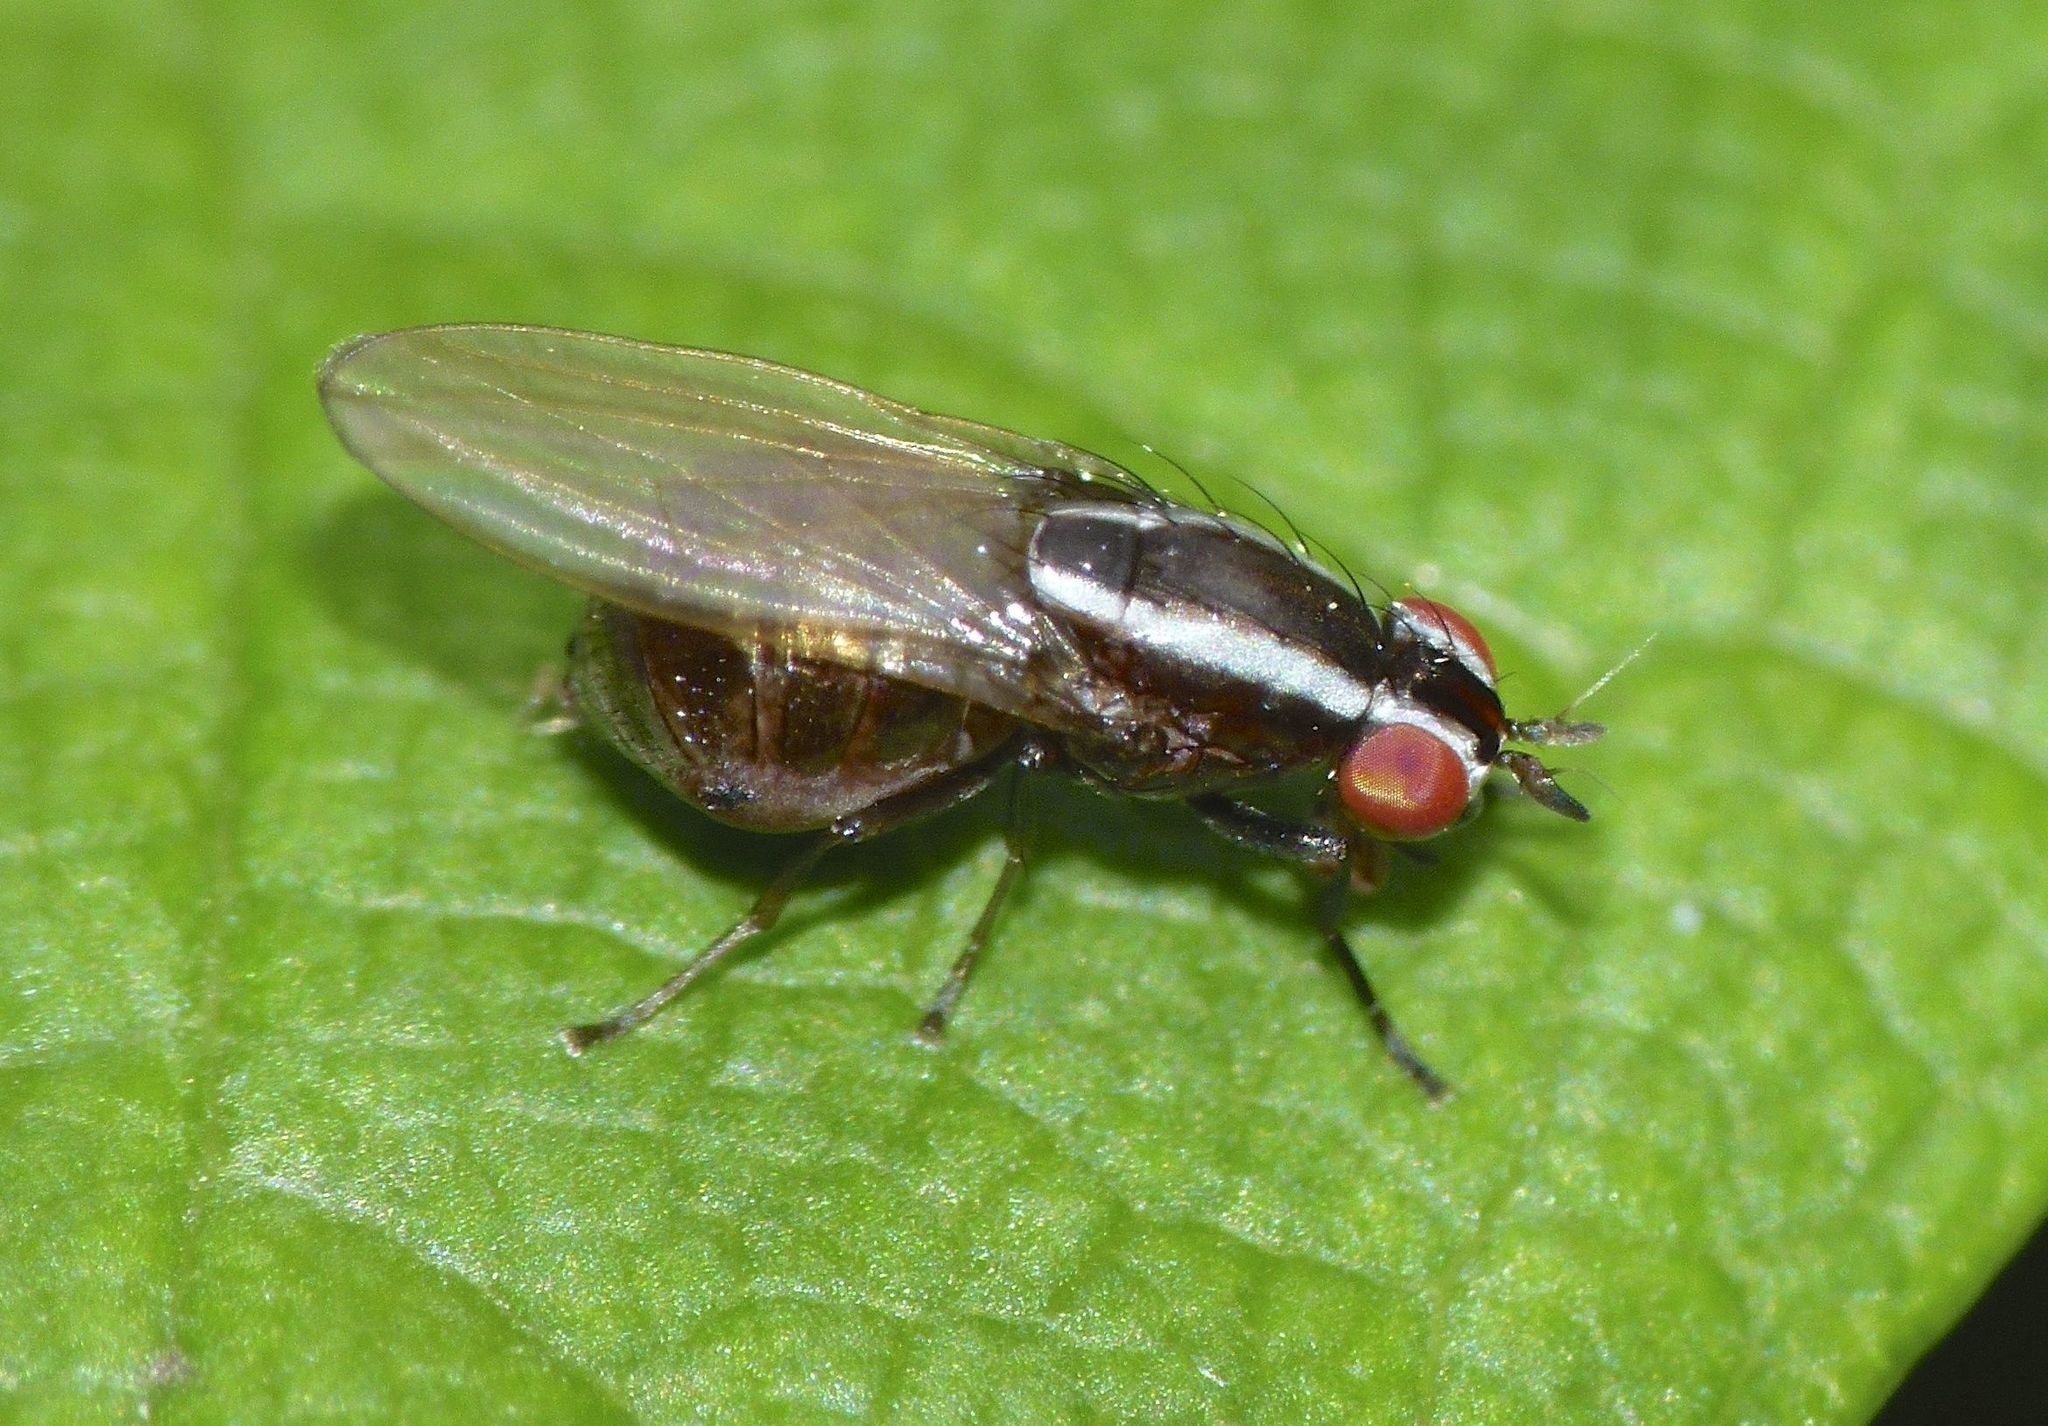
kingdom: Animalia
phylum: Arthropoda
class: Insecta
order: Diptera
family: Lauxaniidae
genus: Poecilohetaerella
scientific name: Poecilohetaerella dubiosa
